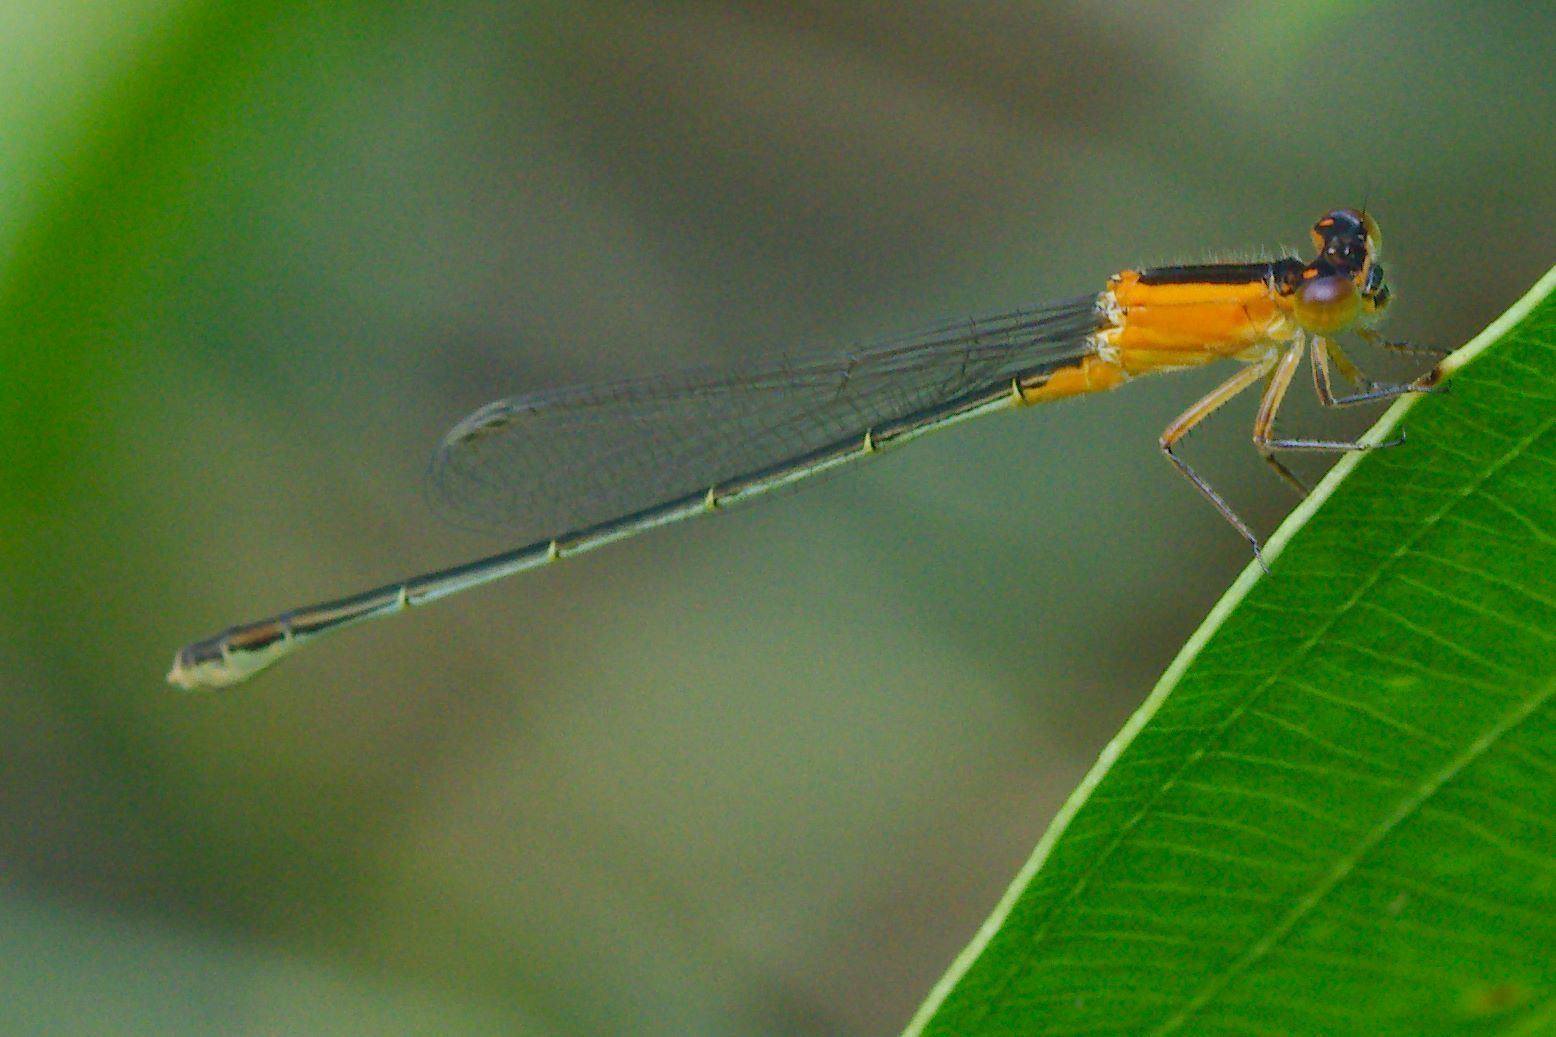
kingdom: Animalia
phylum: Arthropoda
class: Insecta
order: Odonata
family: Coenagrionidae
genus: Ischnura
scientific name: Ischnura ramburii
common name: Rambur's forktail
